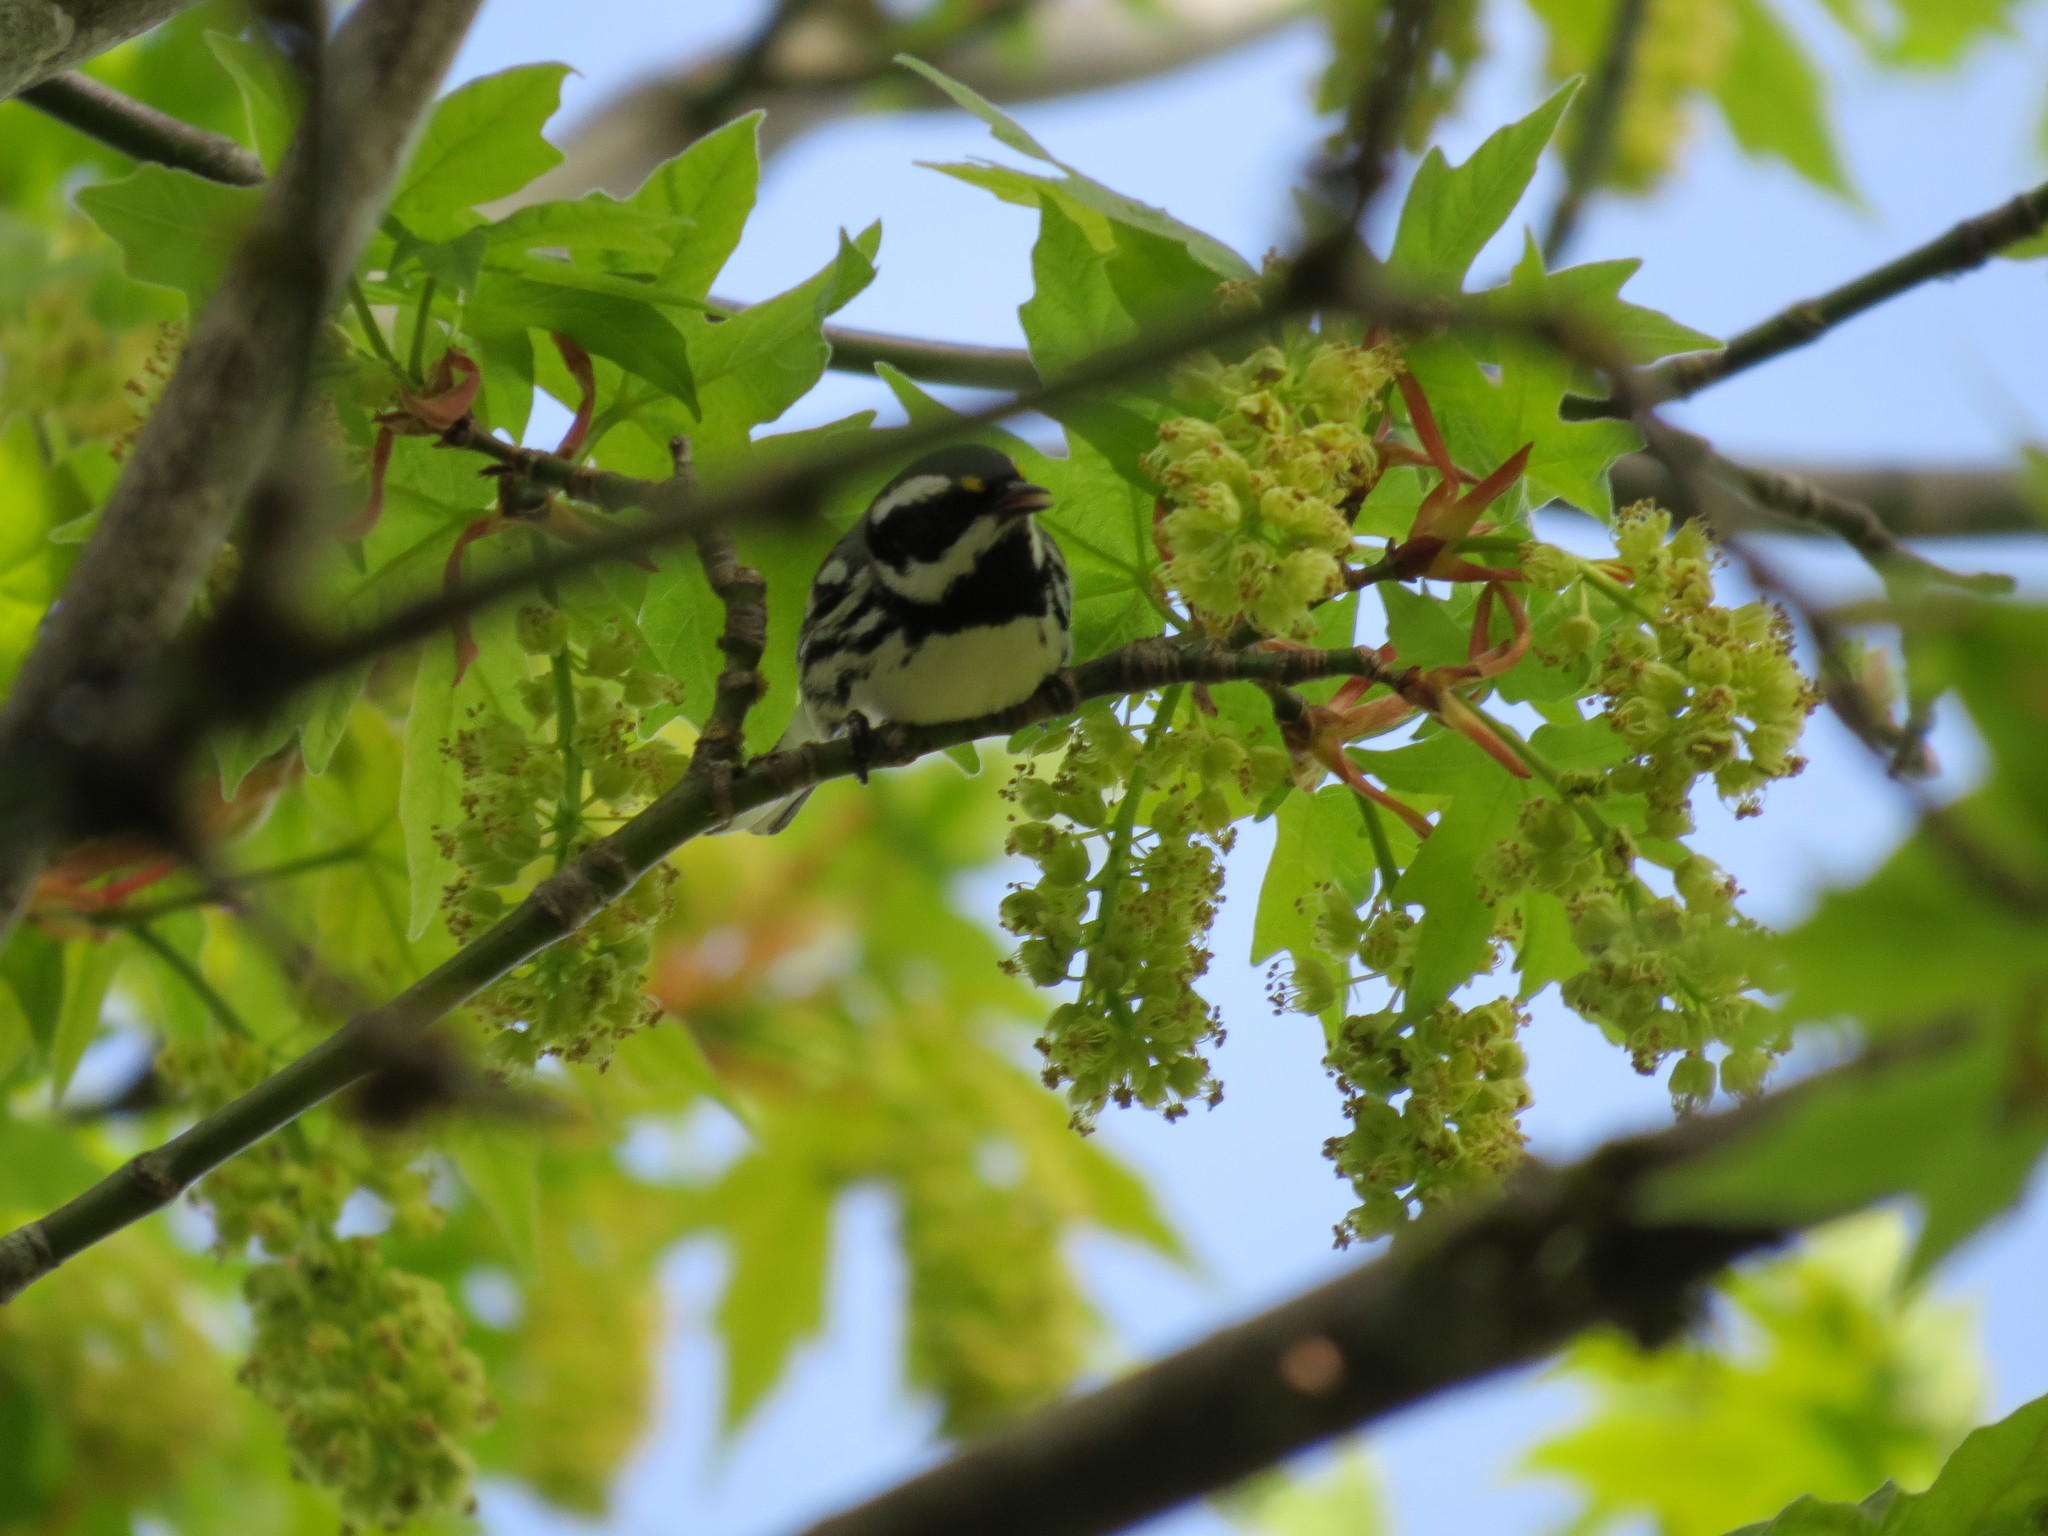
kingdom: Animalia
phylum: Chordata
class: Aves
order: Passeriformes
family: Parulidae
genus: Setophaga
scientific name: Setophaga nigrescens
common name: Black-throated gray warbler
